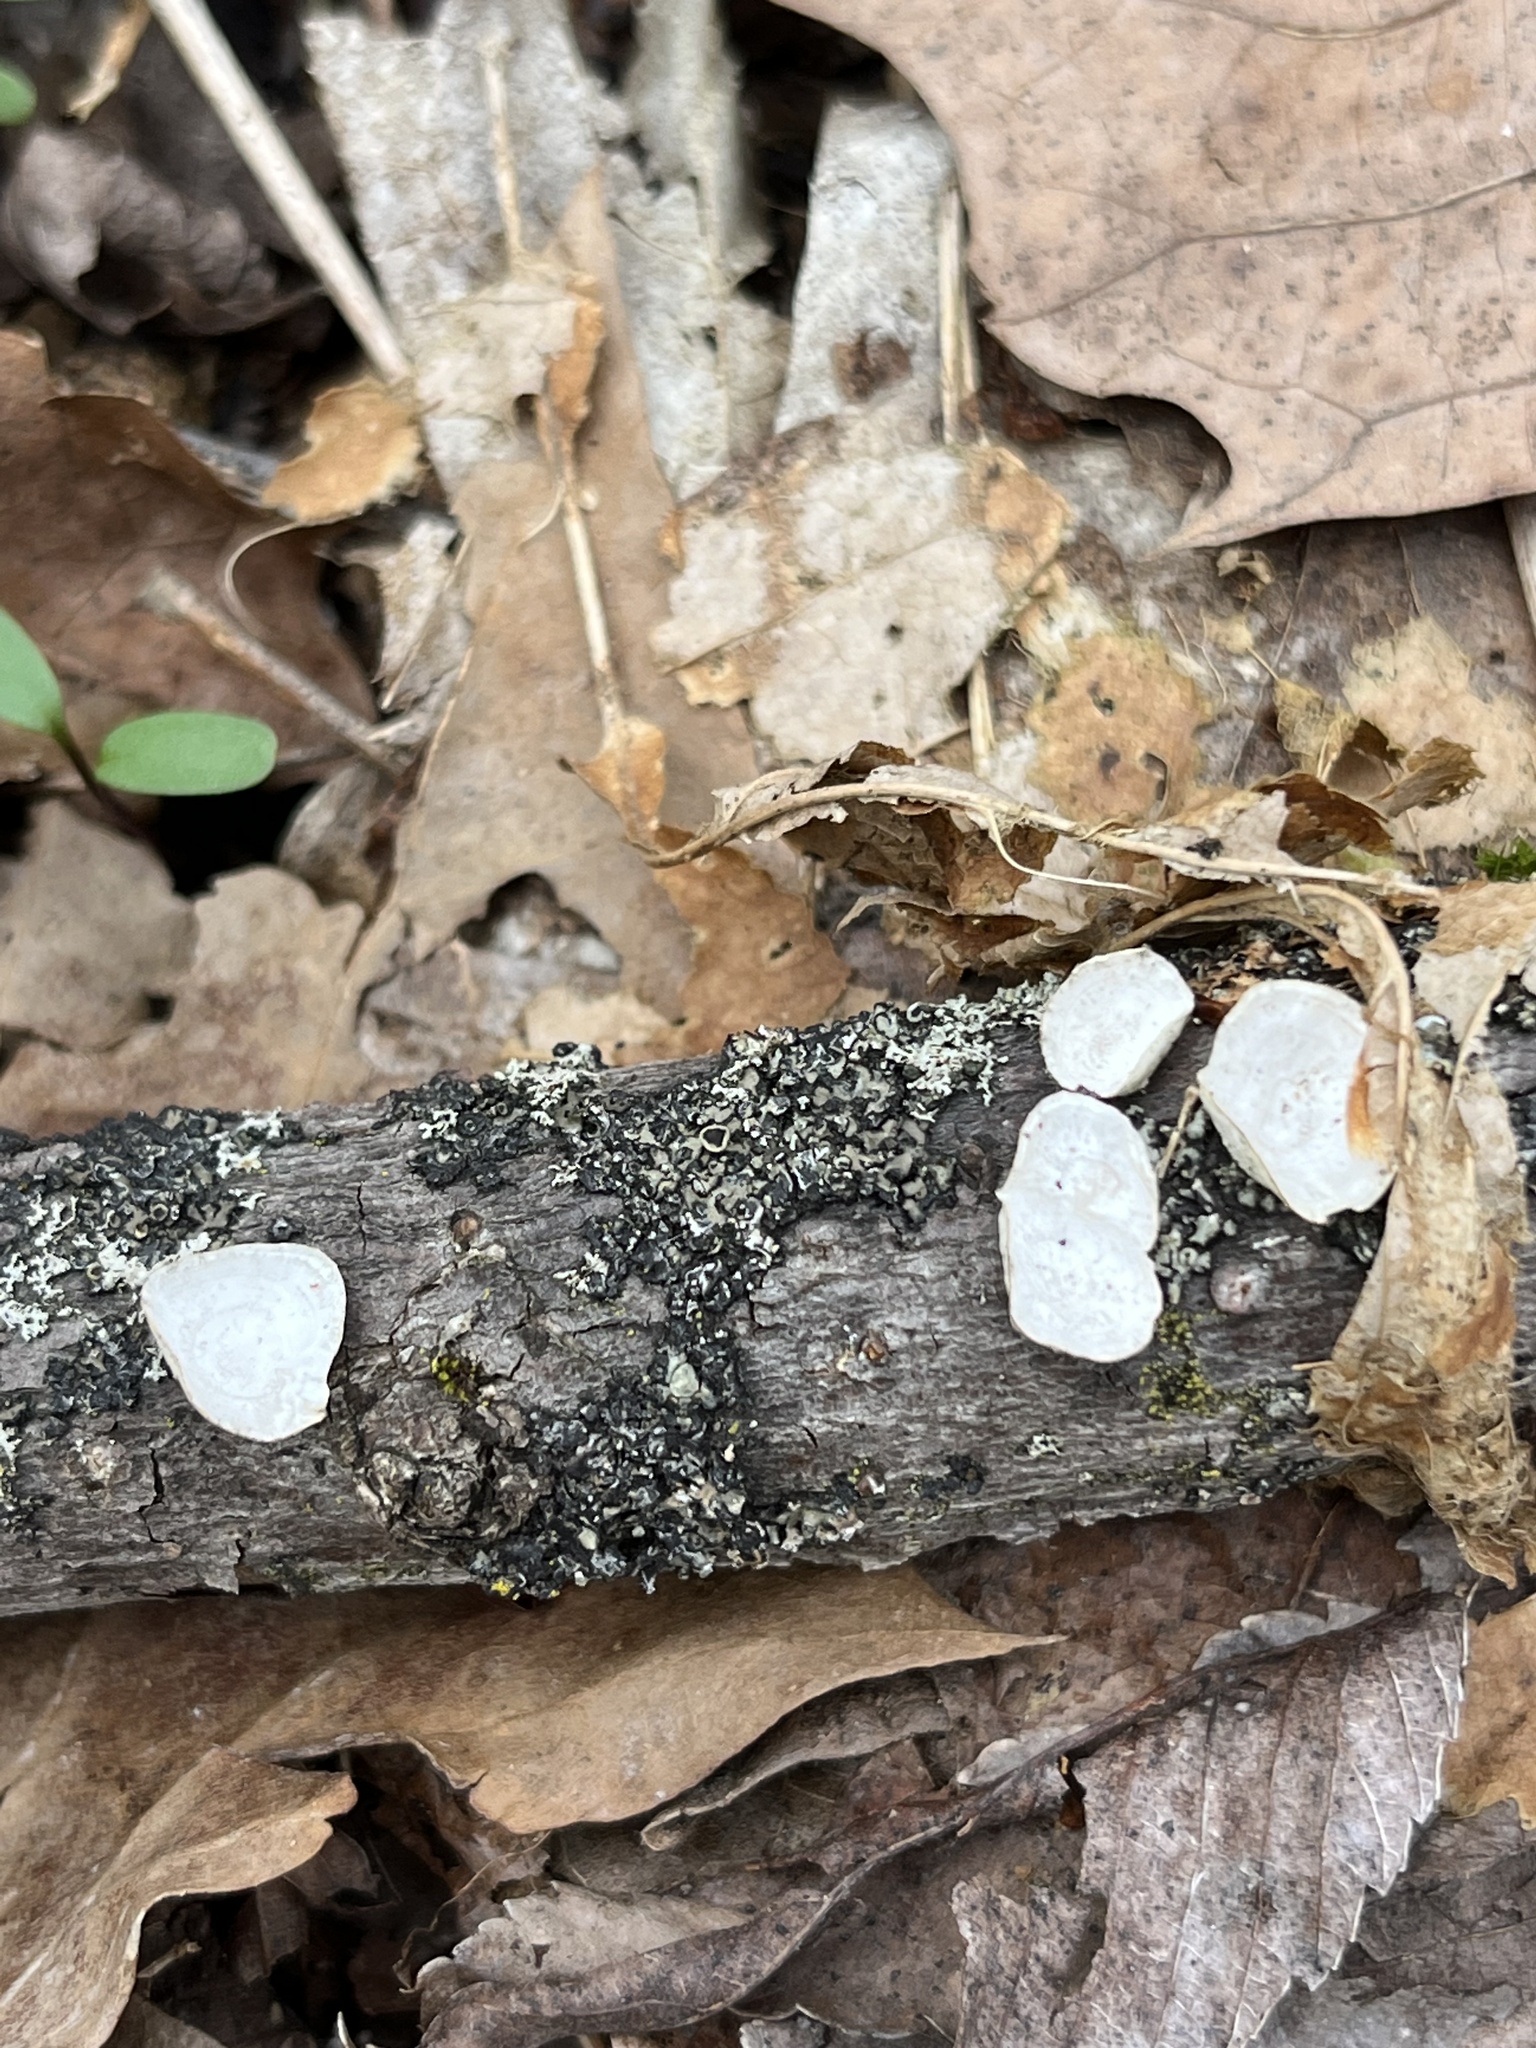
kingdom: Fungi
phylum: Basidiomycota
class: Agaricomycetes
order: Polyporales
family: Polyporaceae
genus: Poronidulus
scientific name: Poronidulus conchifer
